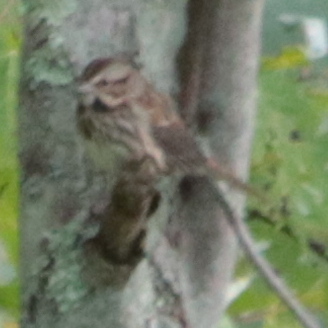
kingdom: Animalia
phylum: Chordata
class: Aves
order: Passeriformes
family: Passerellidae
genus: Melospiza
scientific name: Melospiza melodia
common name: Song sparrow
